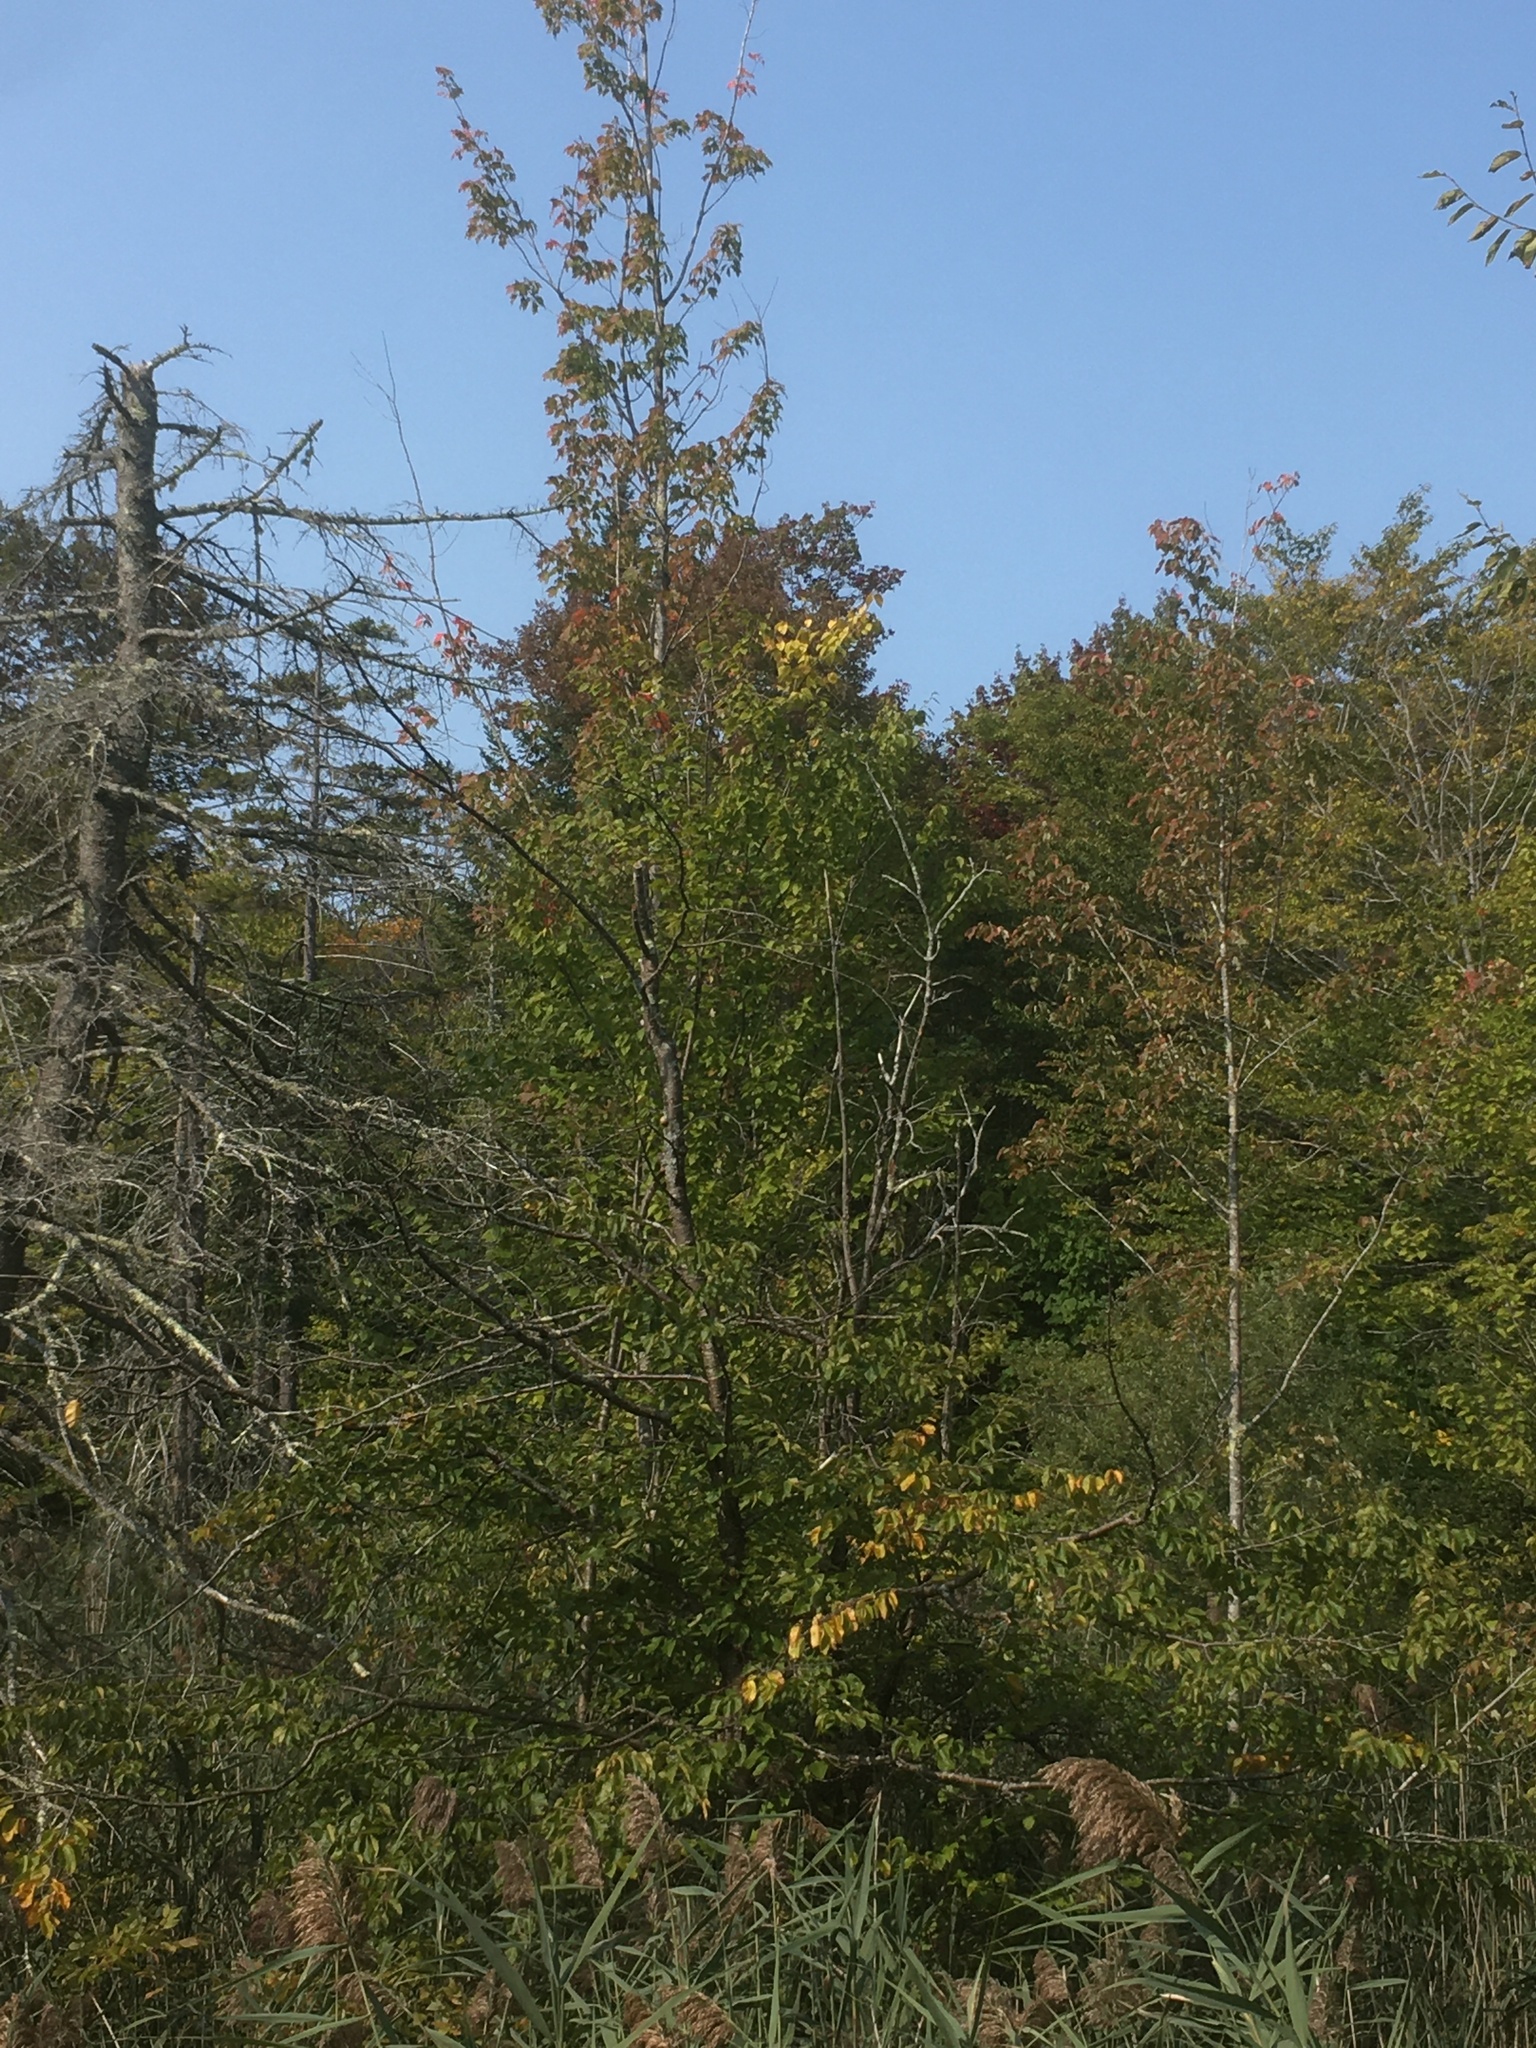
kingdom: Plantae
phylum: Tracheophyta
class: Magnoliopsida
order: Sapindales
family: Sapindaceae
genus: Acer
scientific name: Acer rubrum
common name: Red maple
